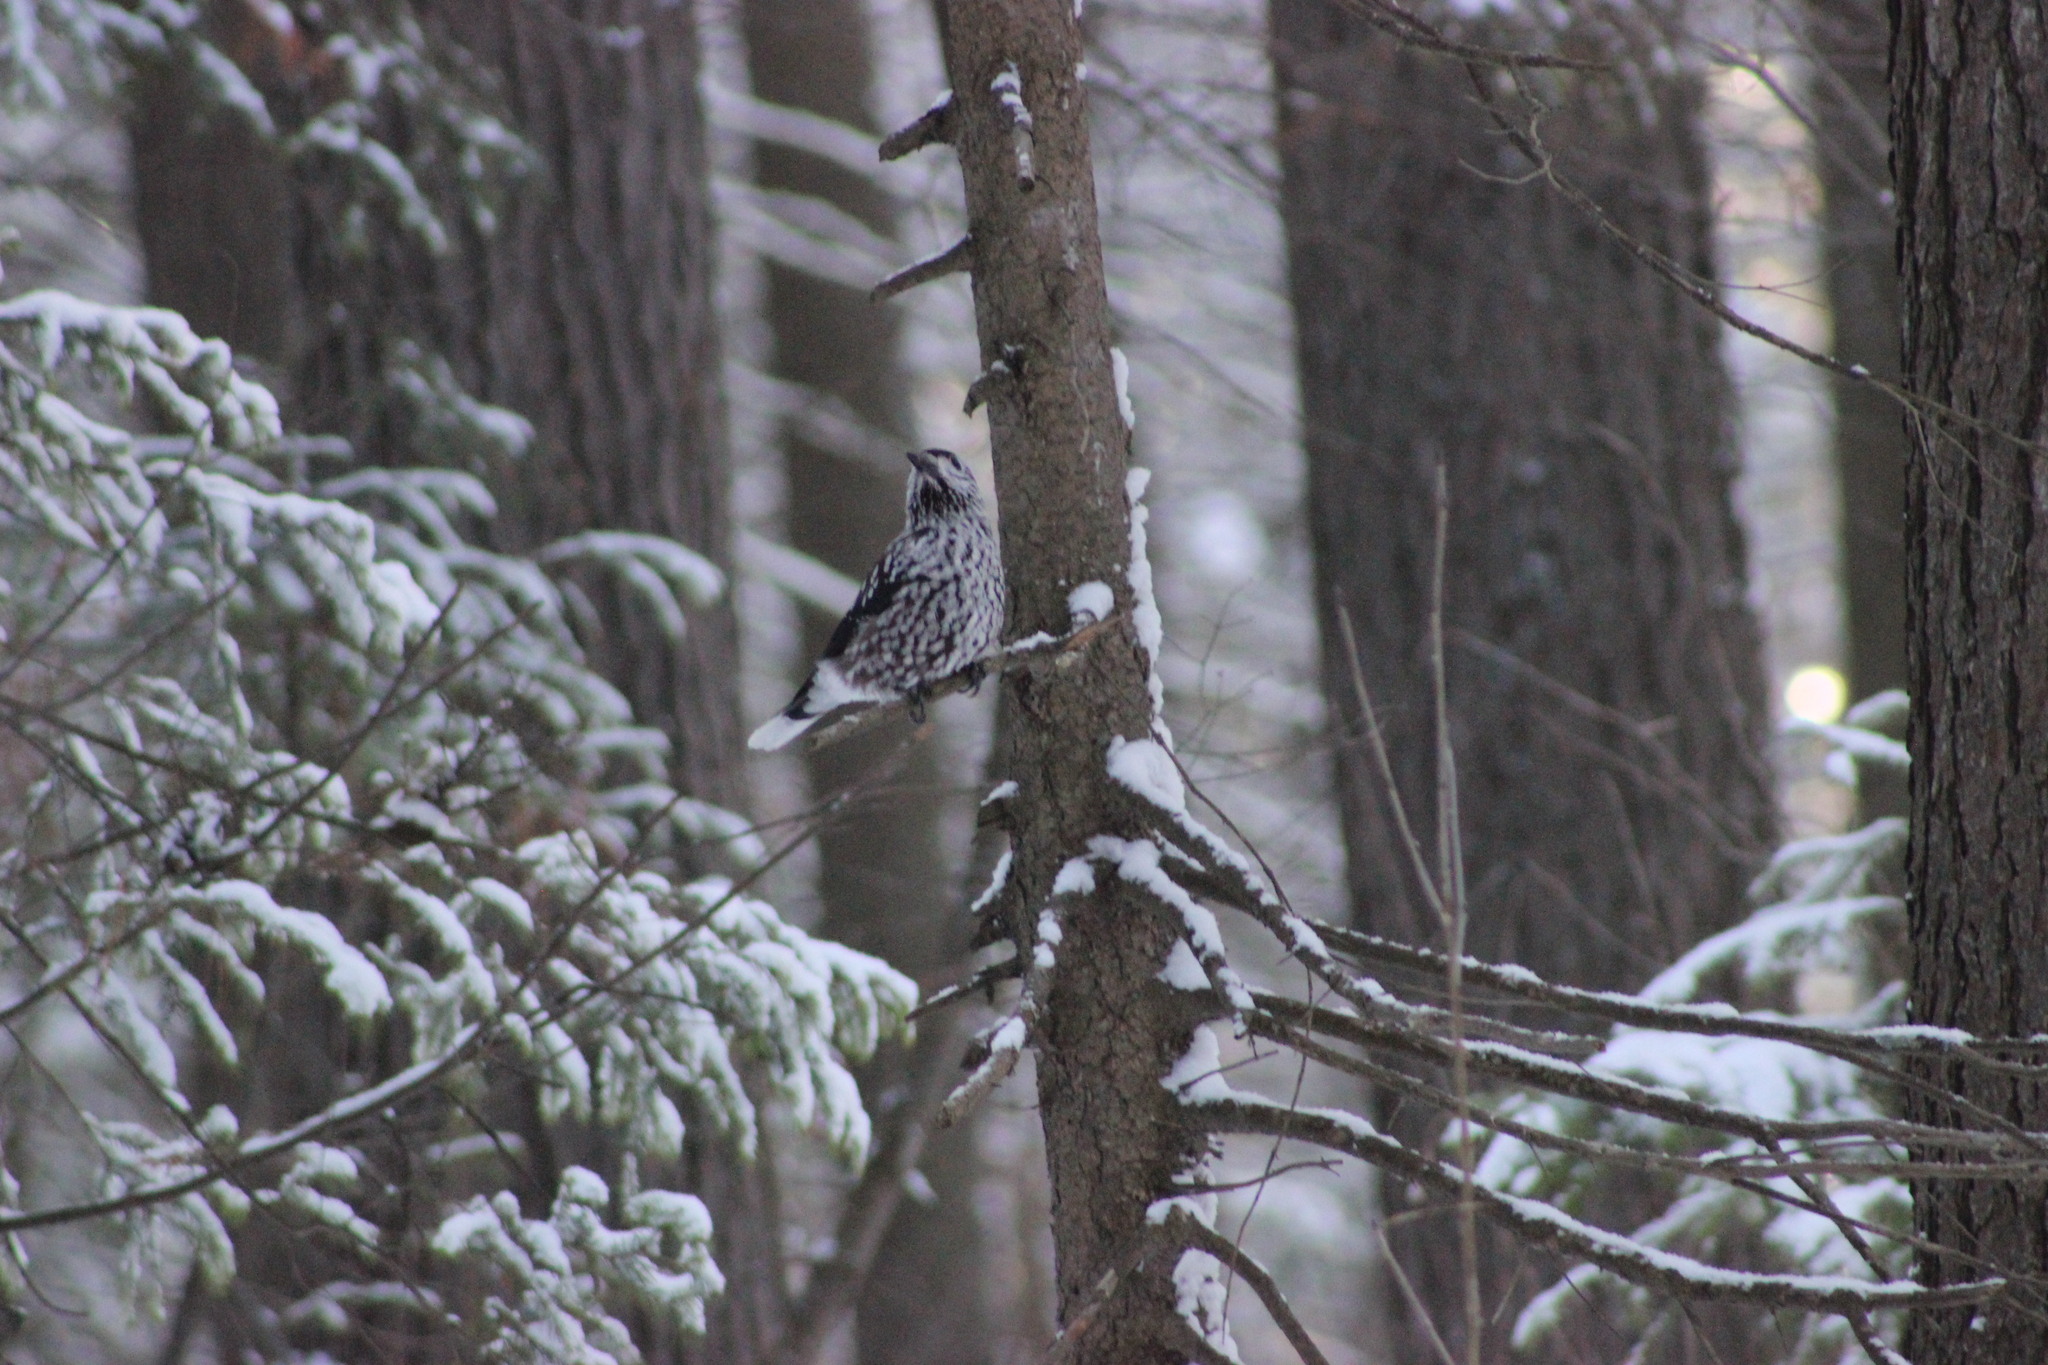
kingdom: Animalia
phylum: Chordata
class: Aves
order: Passeriformes
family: Corvidae
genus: Nucifraga
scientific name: Nucifraga caryocatactes
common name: Spotted nutcracker
